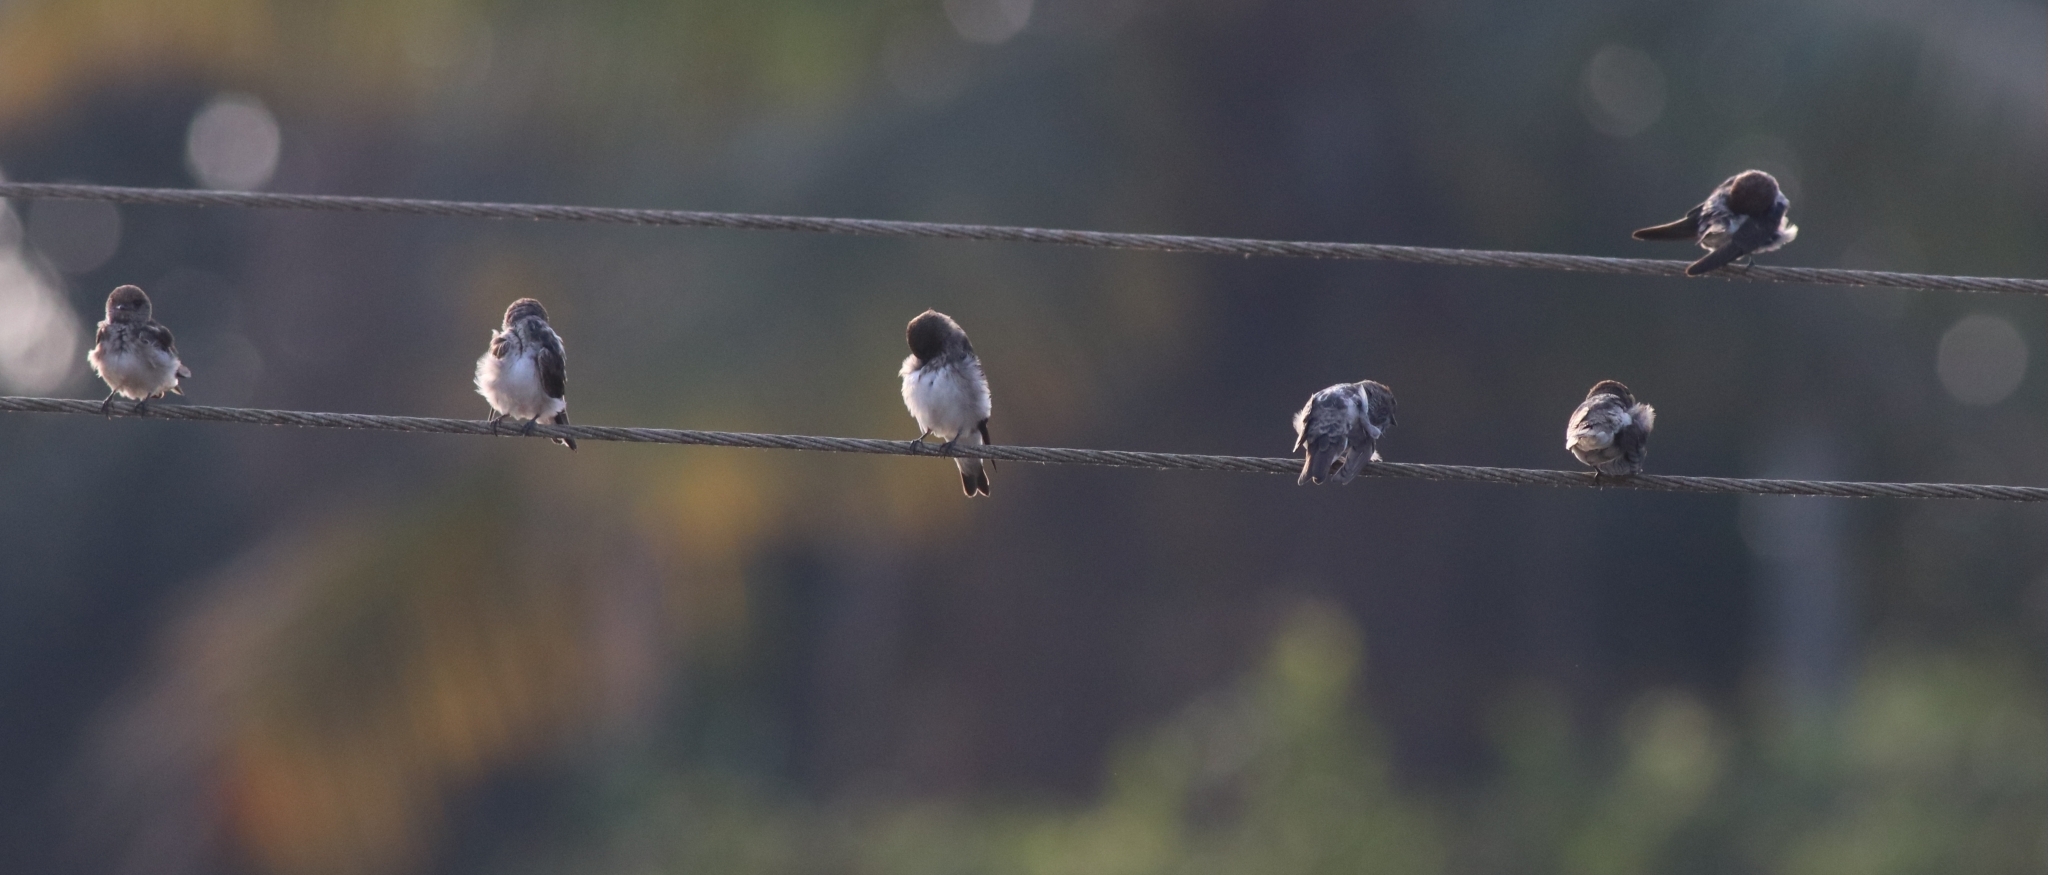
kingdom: Animalia
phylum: Chordata
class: Aves
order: Passeriformes
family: Hirundinidae
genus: Petrochelidon
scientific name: Petrochelidon fluvicola
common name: Streak-throated swallow
